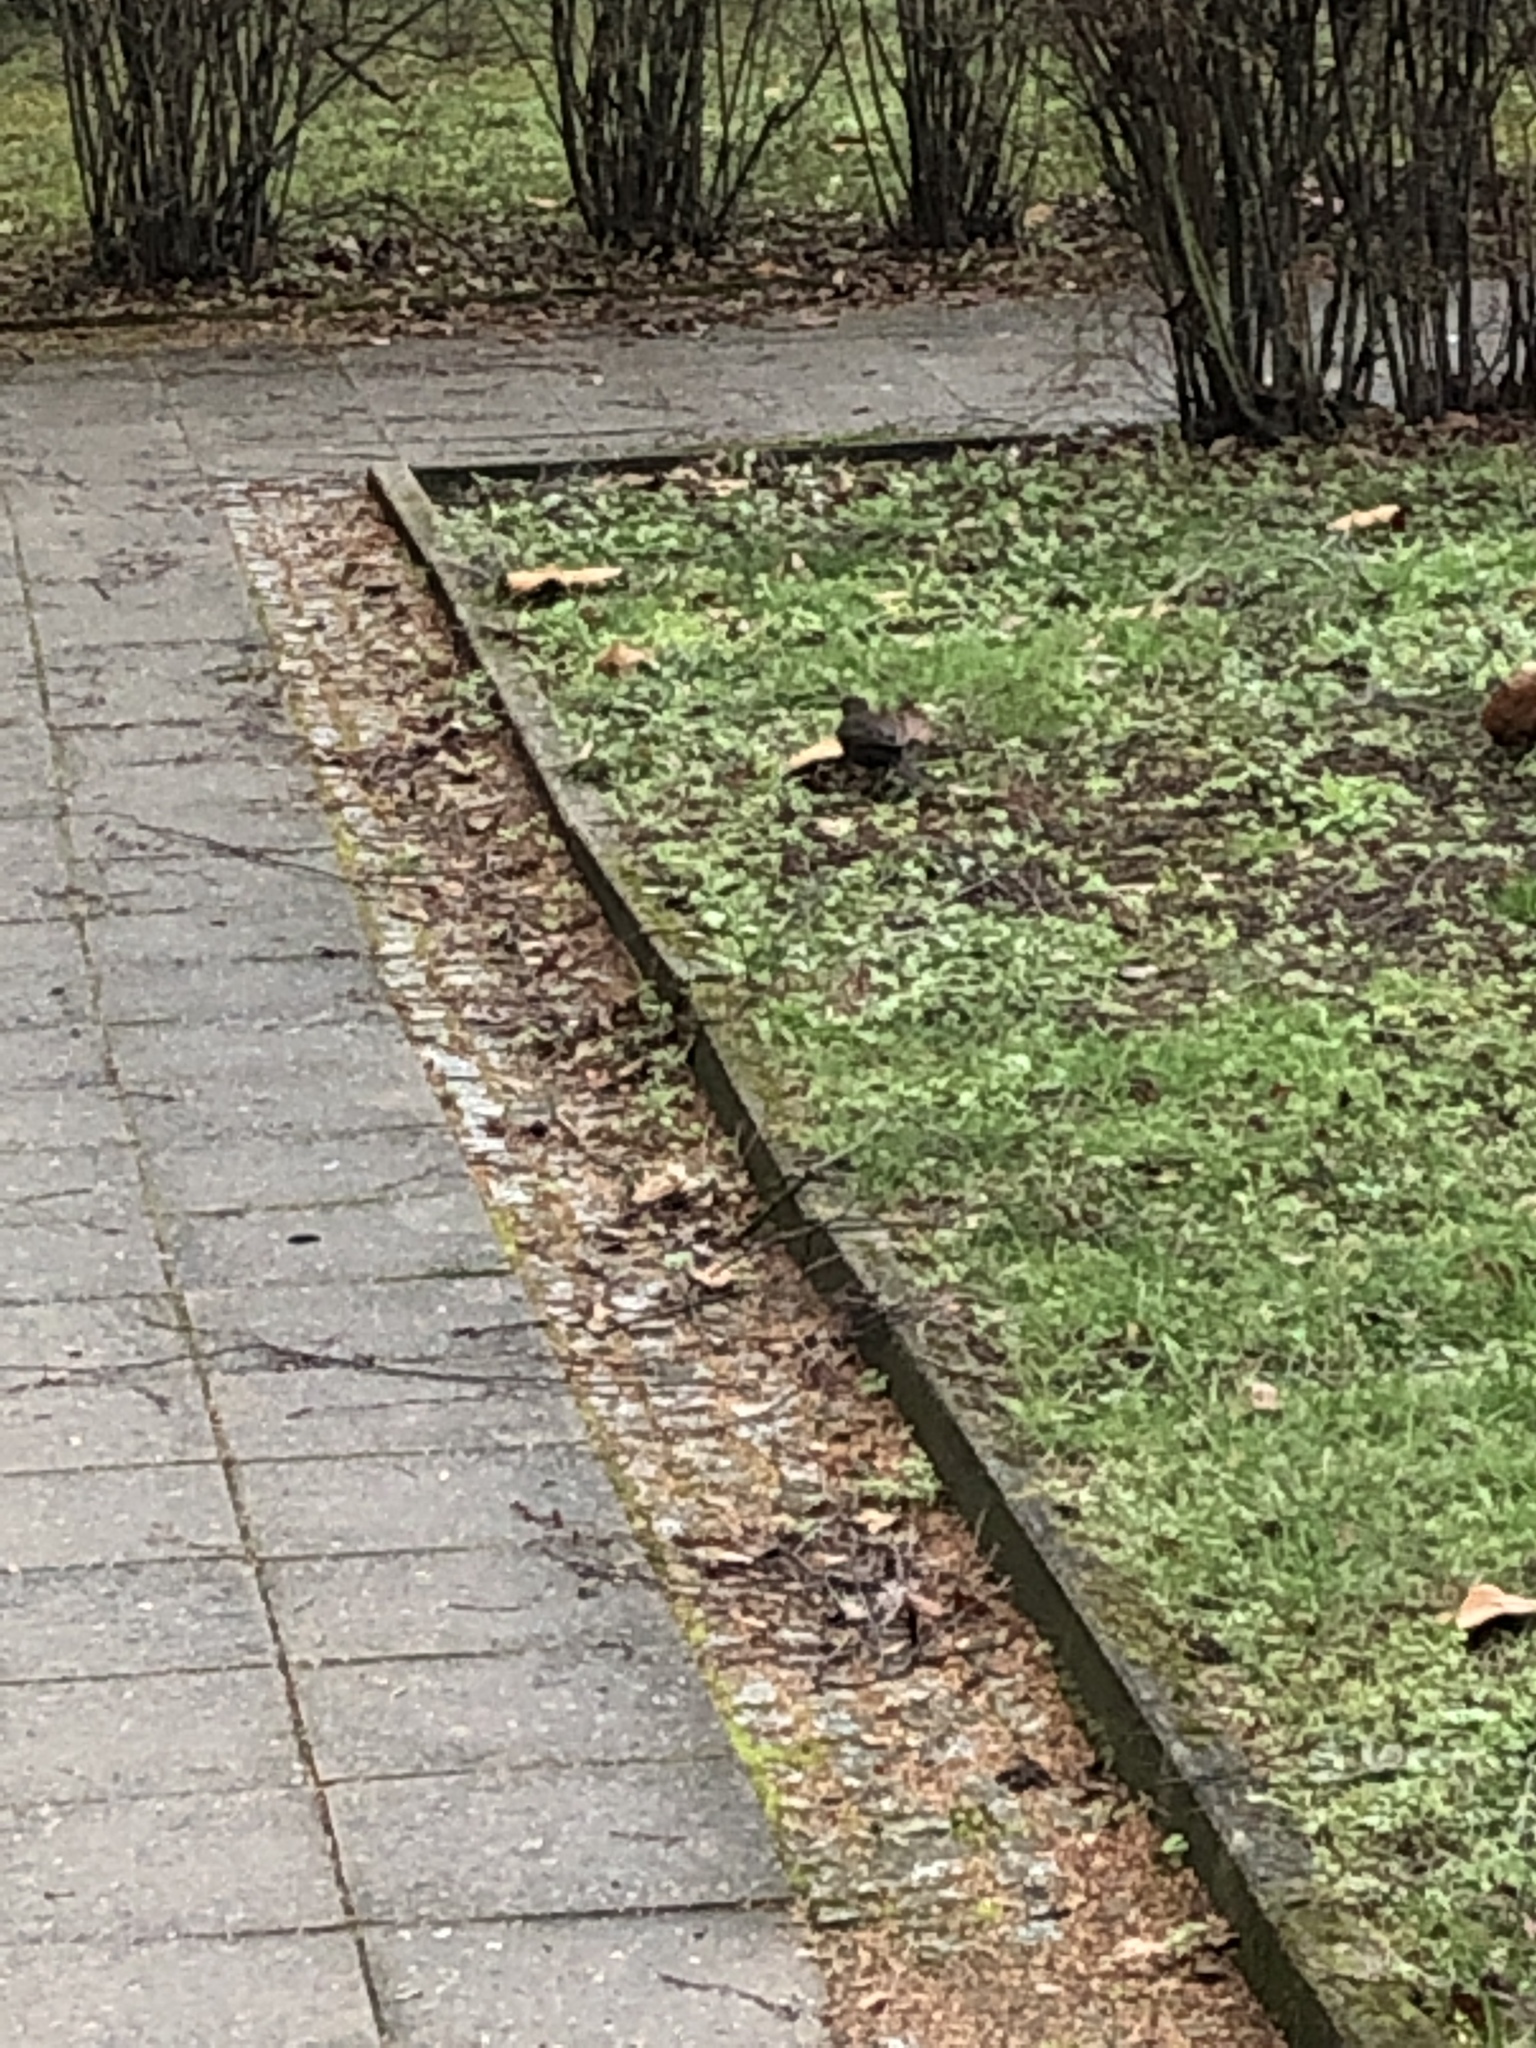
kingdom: Animalia
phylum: Chordata
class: Aves
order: Passeriformes
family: Turdidae
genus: Turdus
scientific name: Turdus merula
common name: Common blackbird
